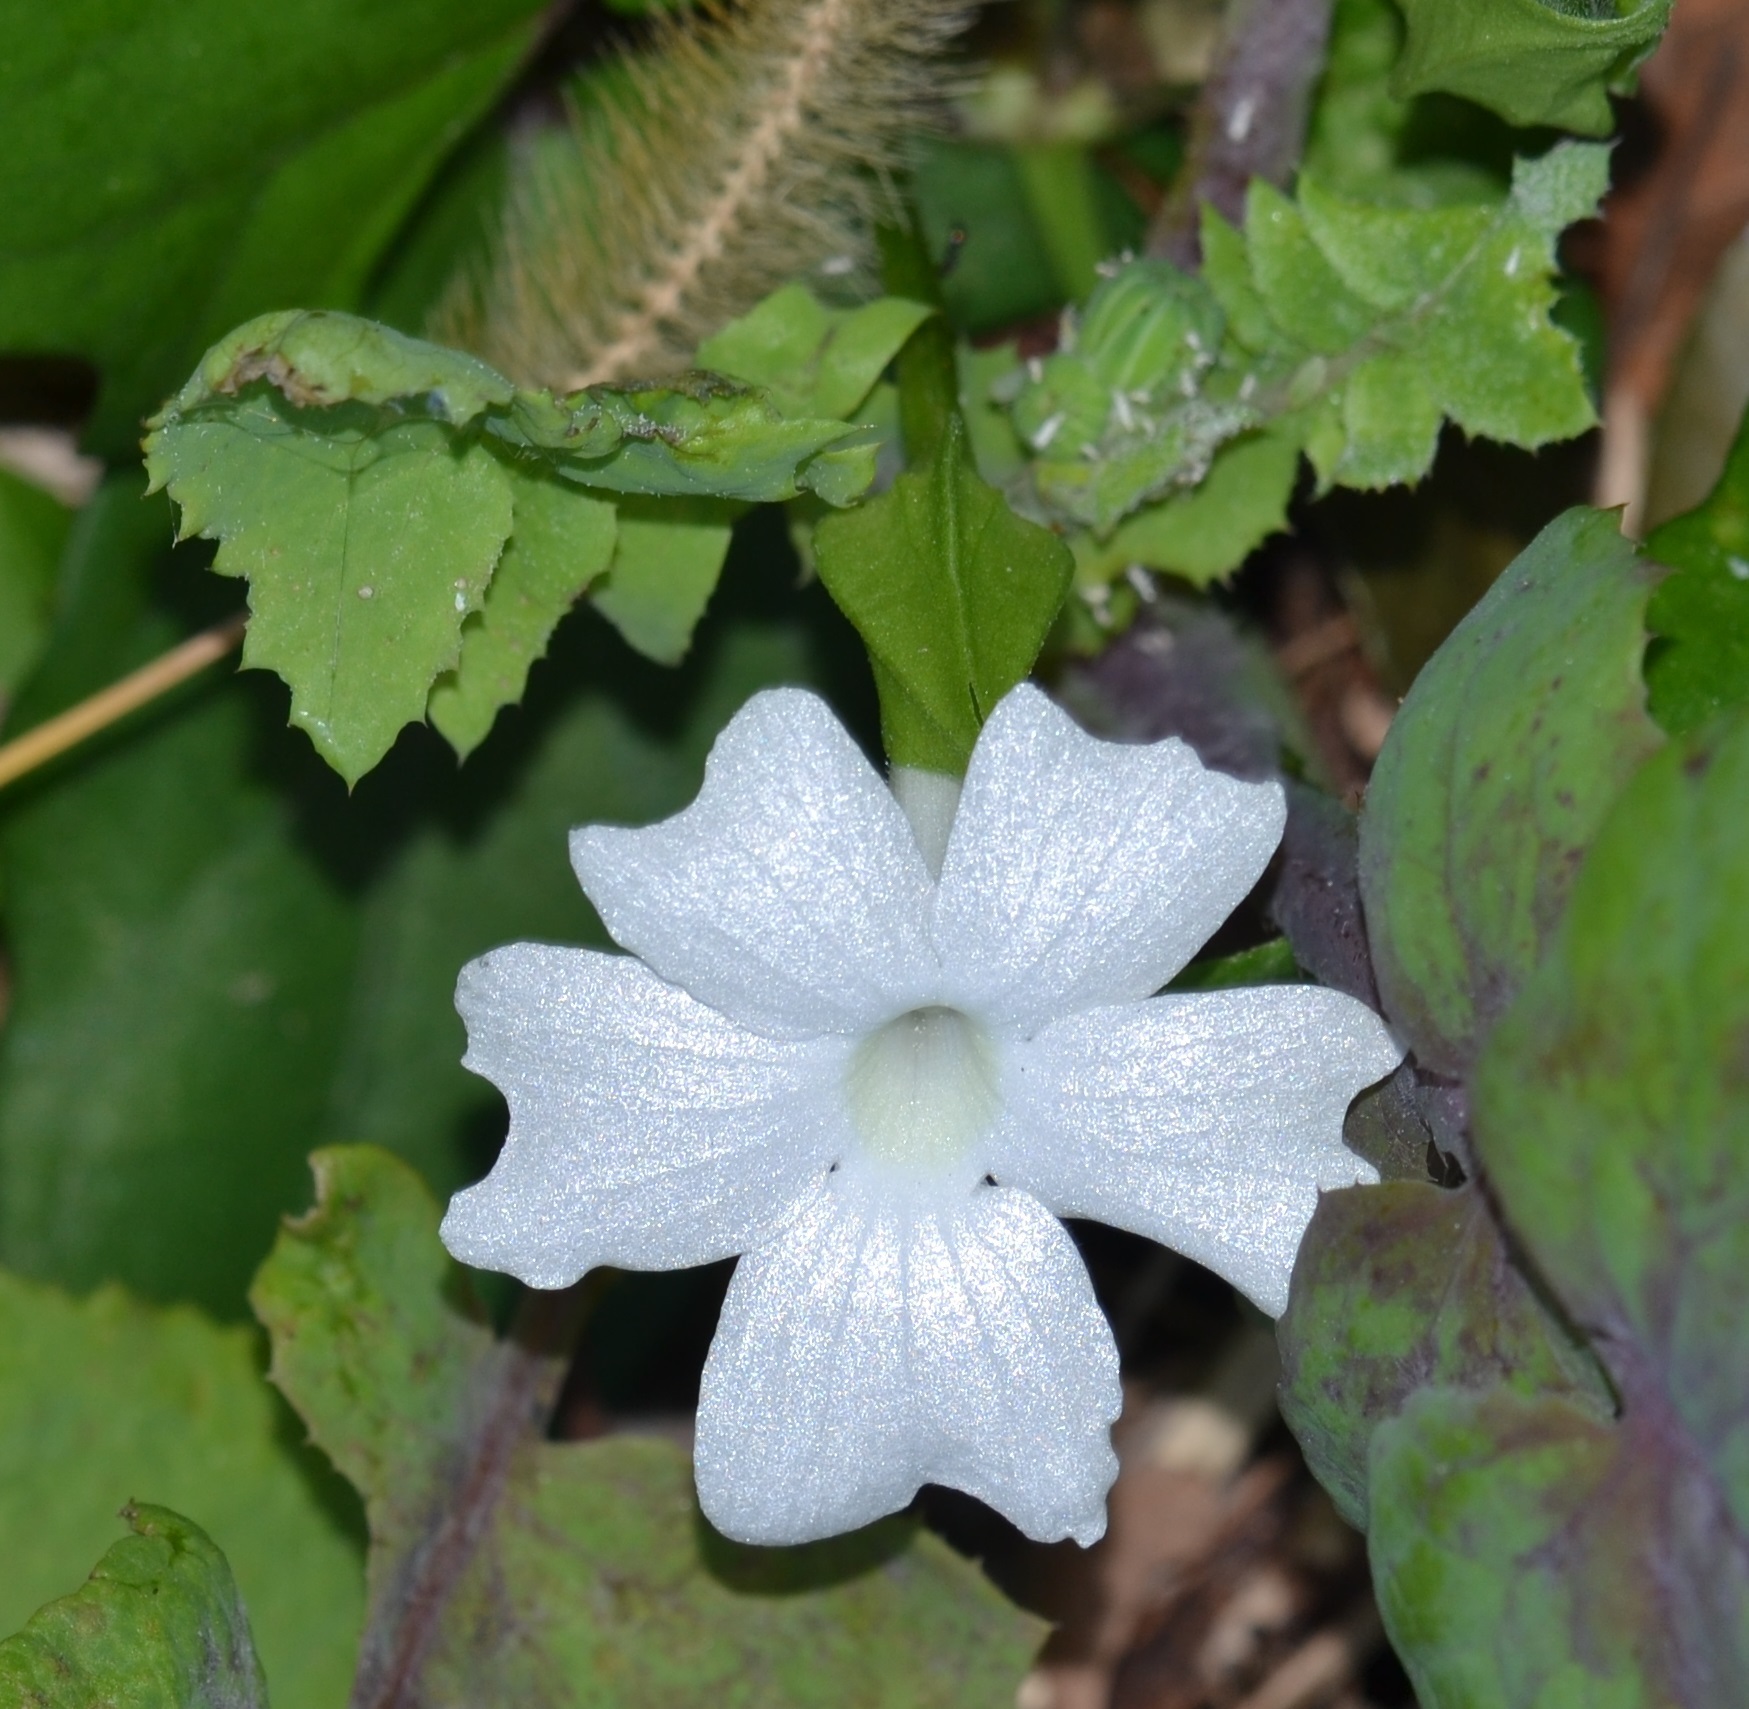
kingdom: Plantae
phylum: Tracheophyta
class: Magnoliopsida
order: Lamiales
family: Acanthaceae
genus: Thunbergia
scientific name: Thunbergia fragrans
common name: Whitelady
